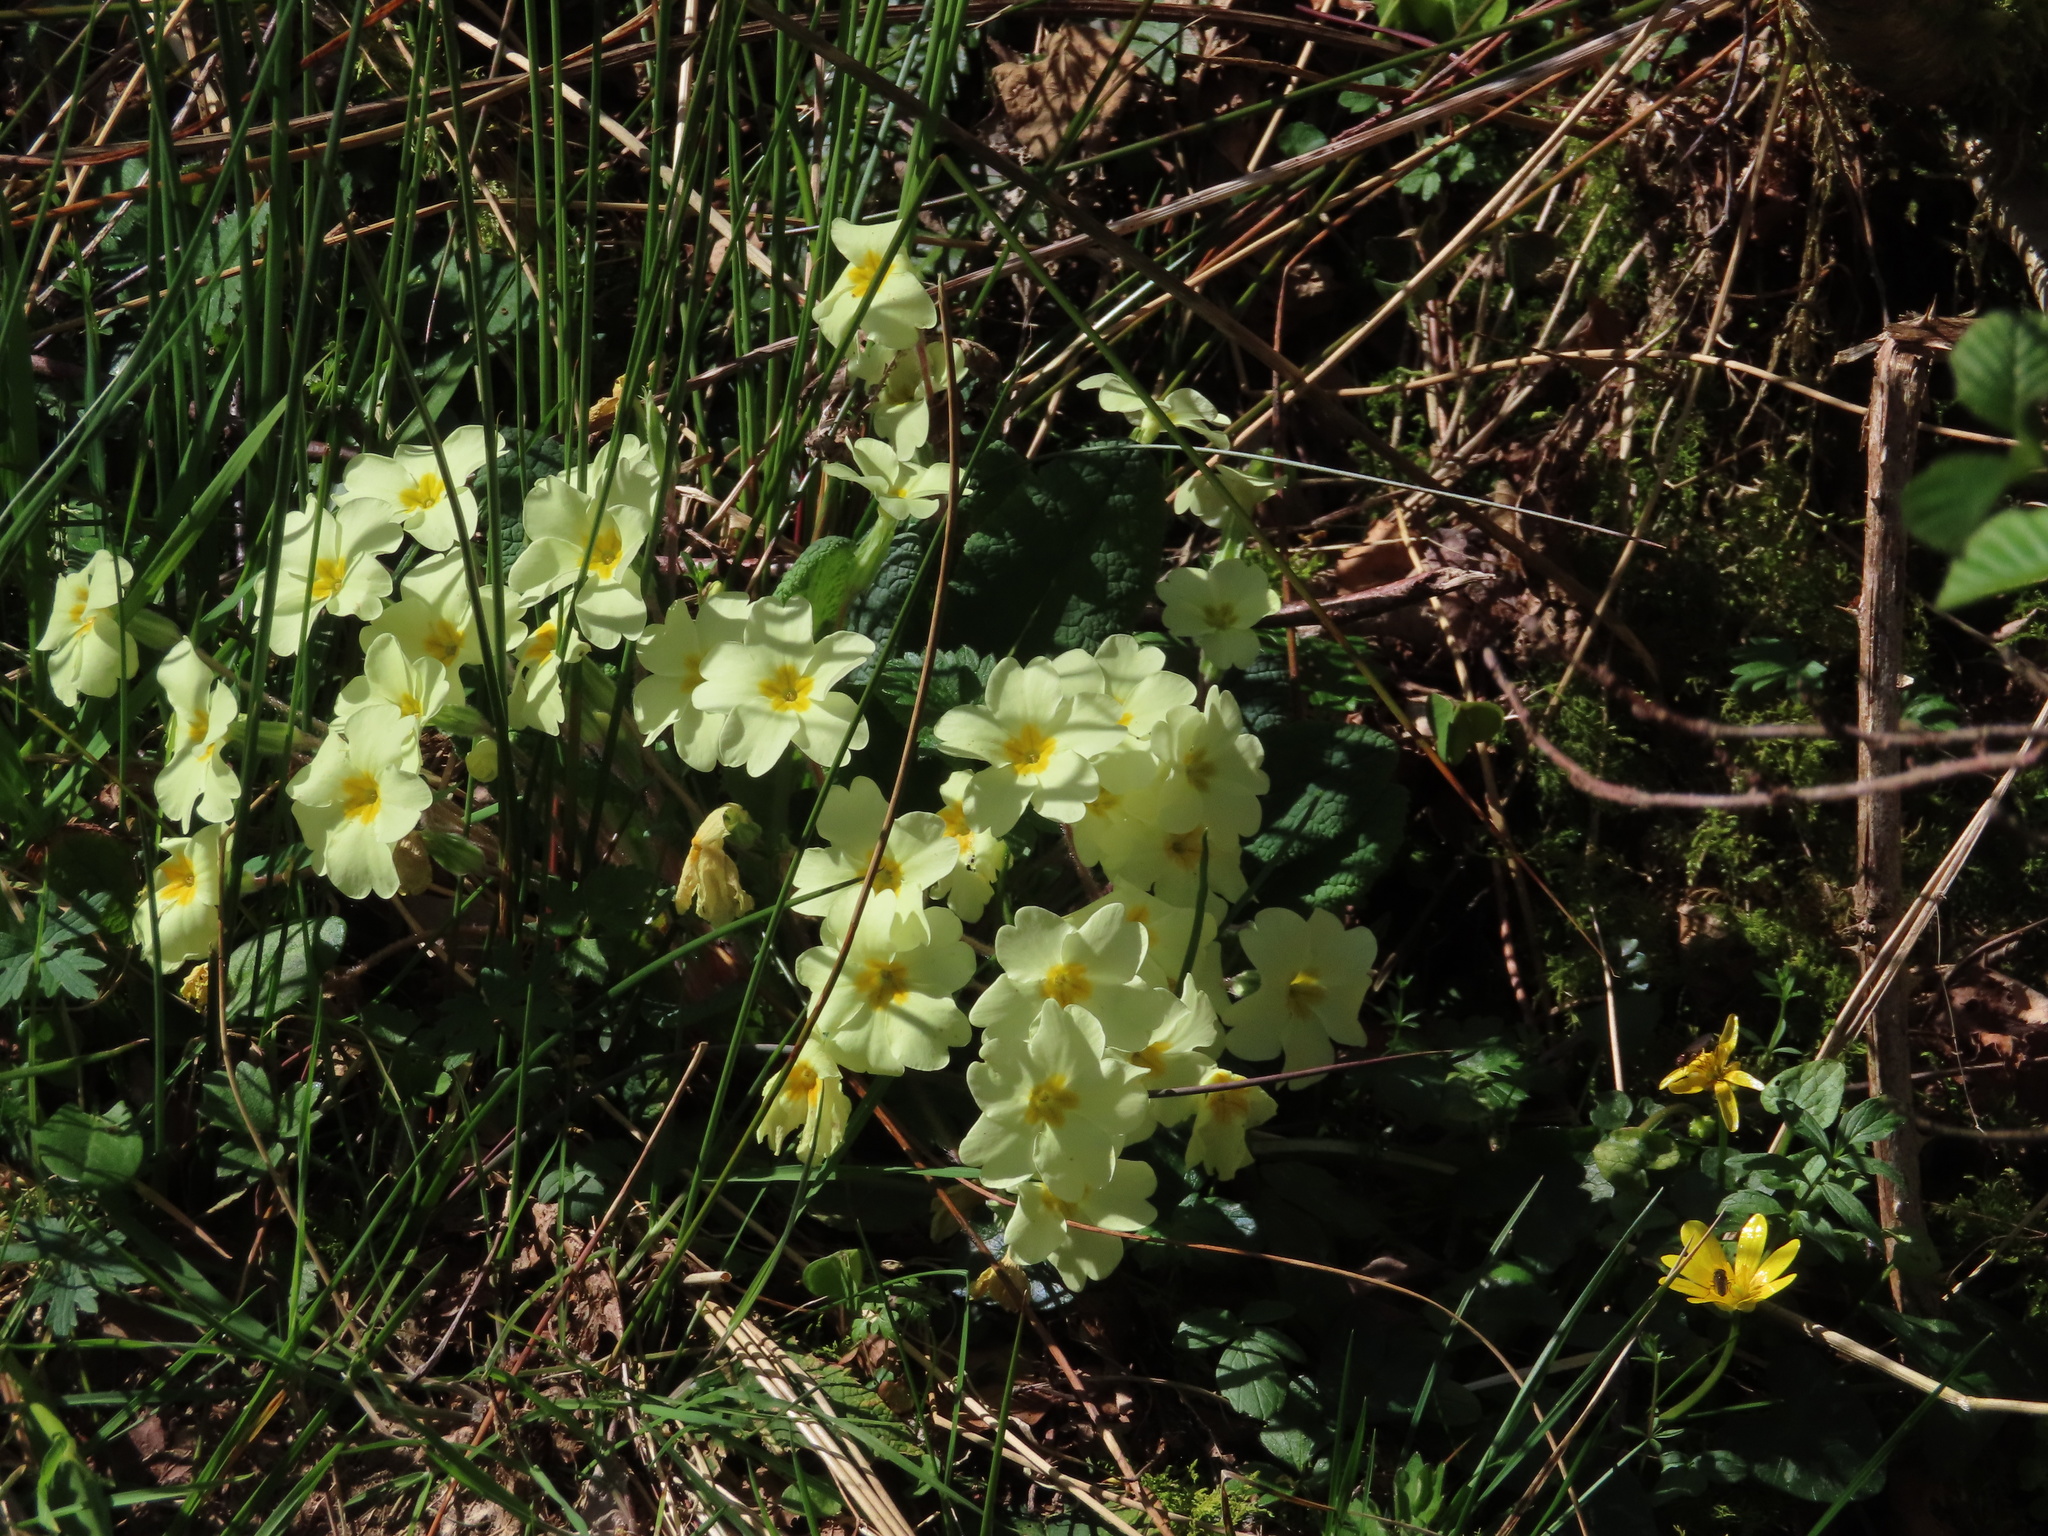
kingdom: Plantae
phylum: Tracheophyta
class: Magnoliopsida
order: Ericales
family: Primulaceae
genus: Primula
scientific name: Primula vulgaris
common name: Primrose
